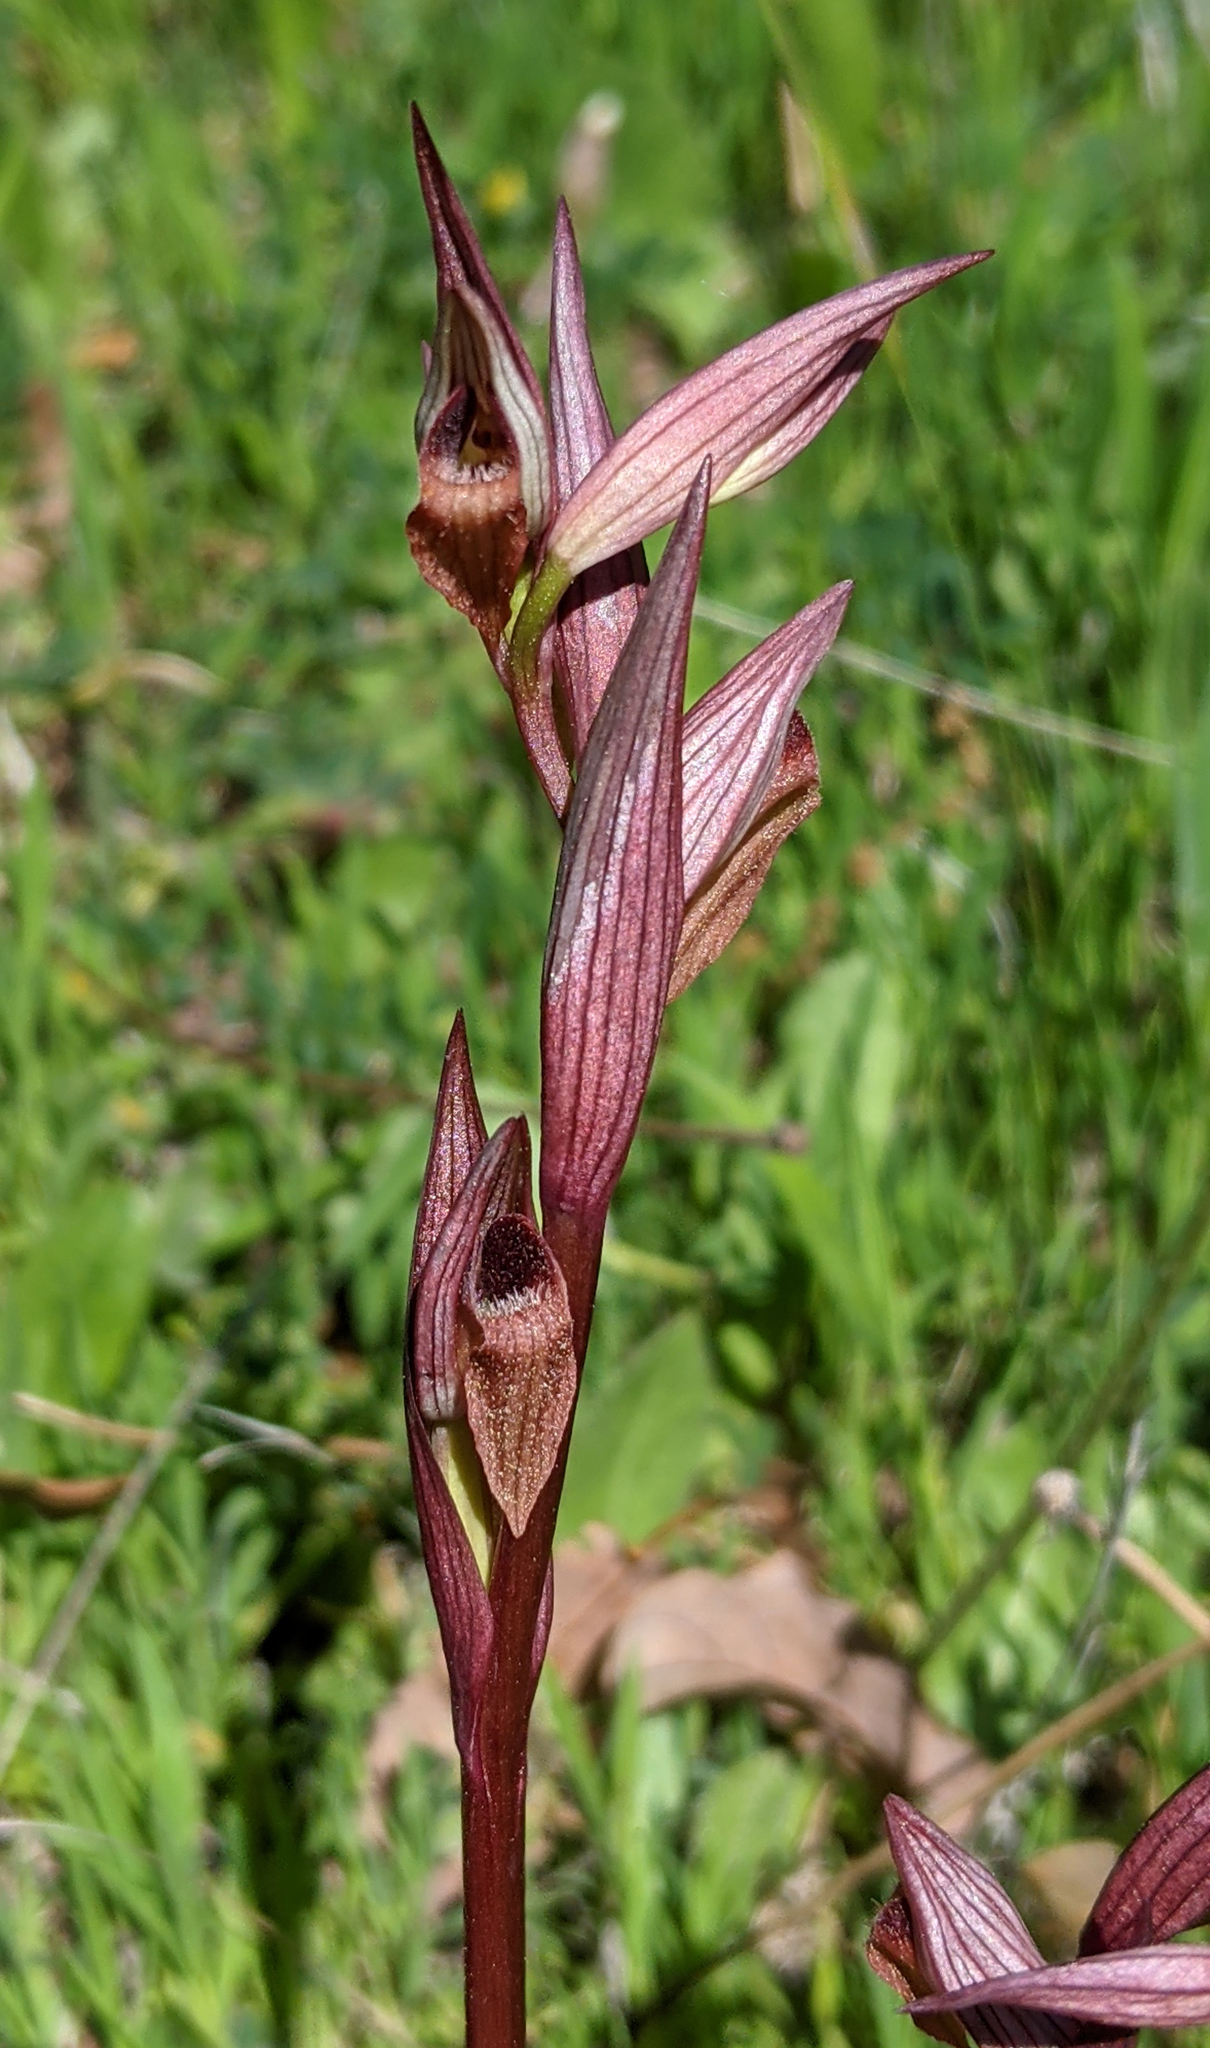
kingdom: Plantae
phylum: Tracheophyta
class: Liliopsida
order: Asparagales
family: Orchidaceae
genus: Serapias
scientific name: Serapias vomeracea
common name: Long-lipped tongue-orchid
